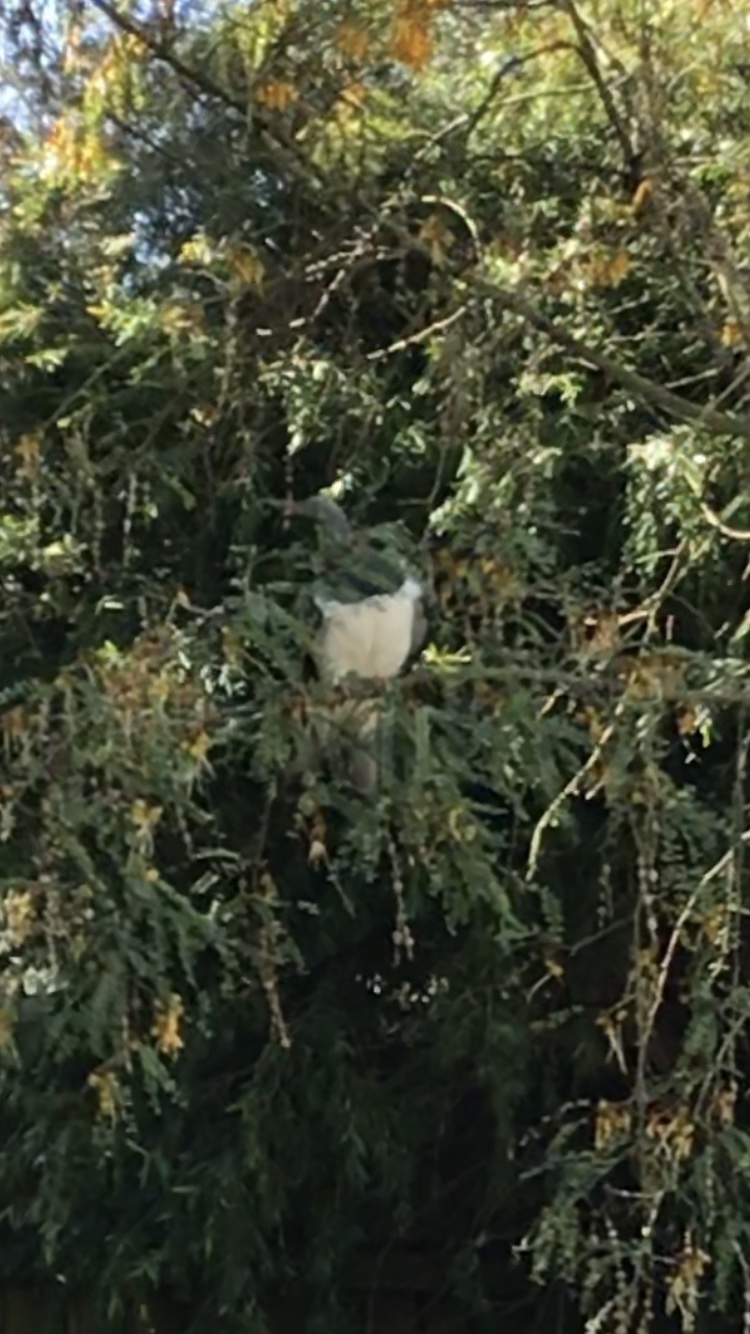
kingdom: Animalia
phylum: Chordata
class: Aves
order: Columbiformes
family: Columbidae
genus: Hemiphaga
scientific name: Hemiphaga novaeseelandiae
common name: New zealand pigeon
